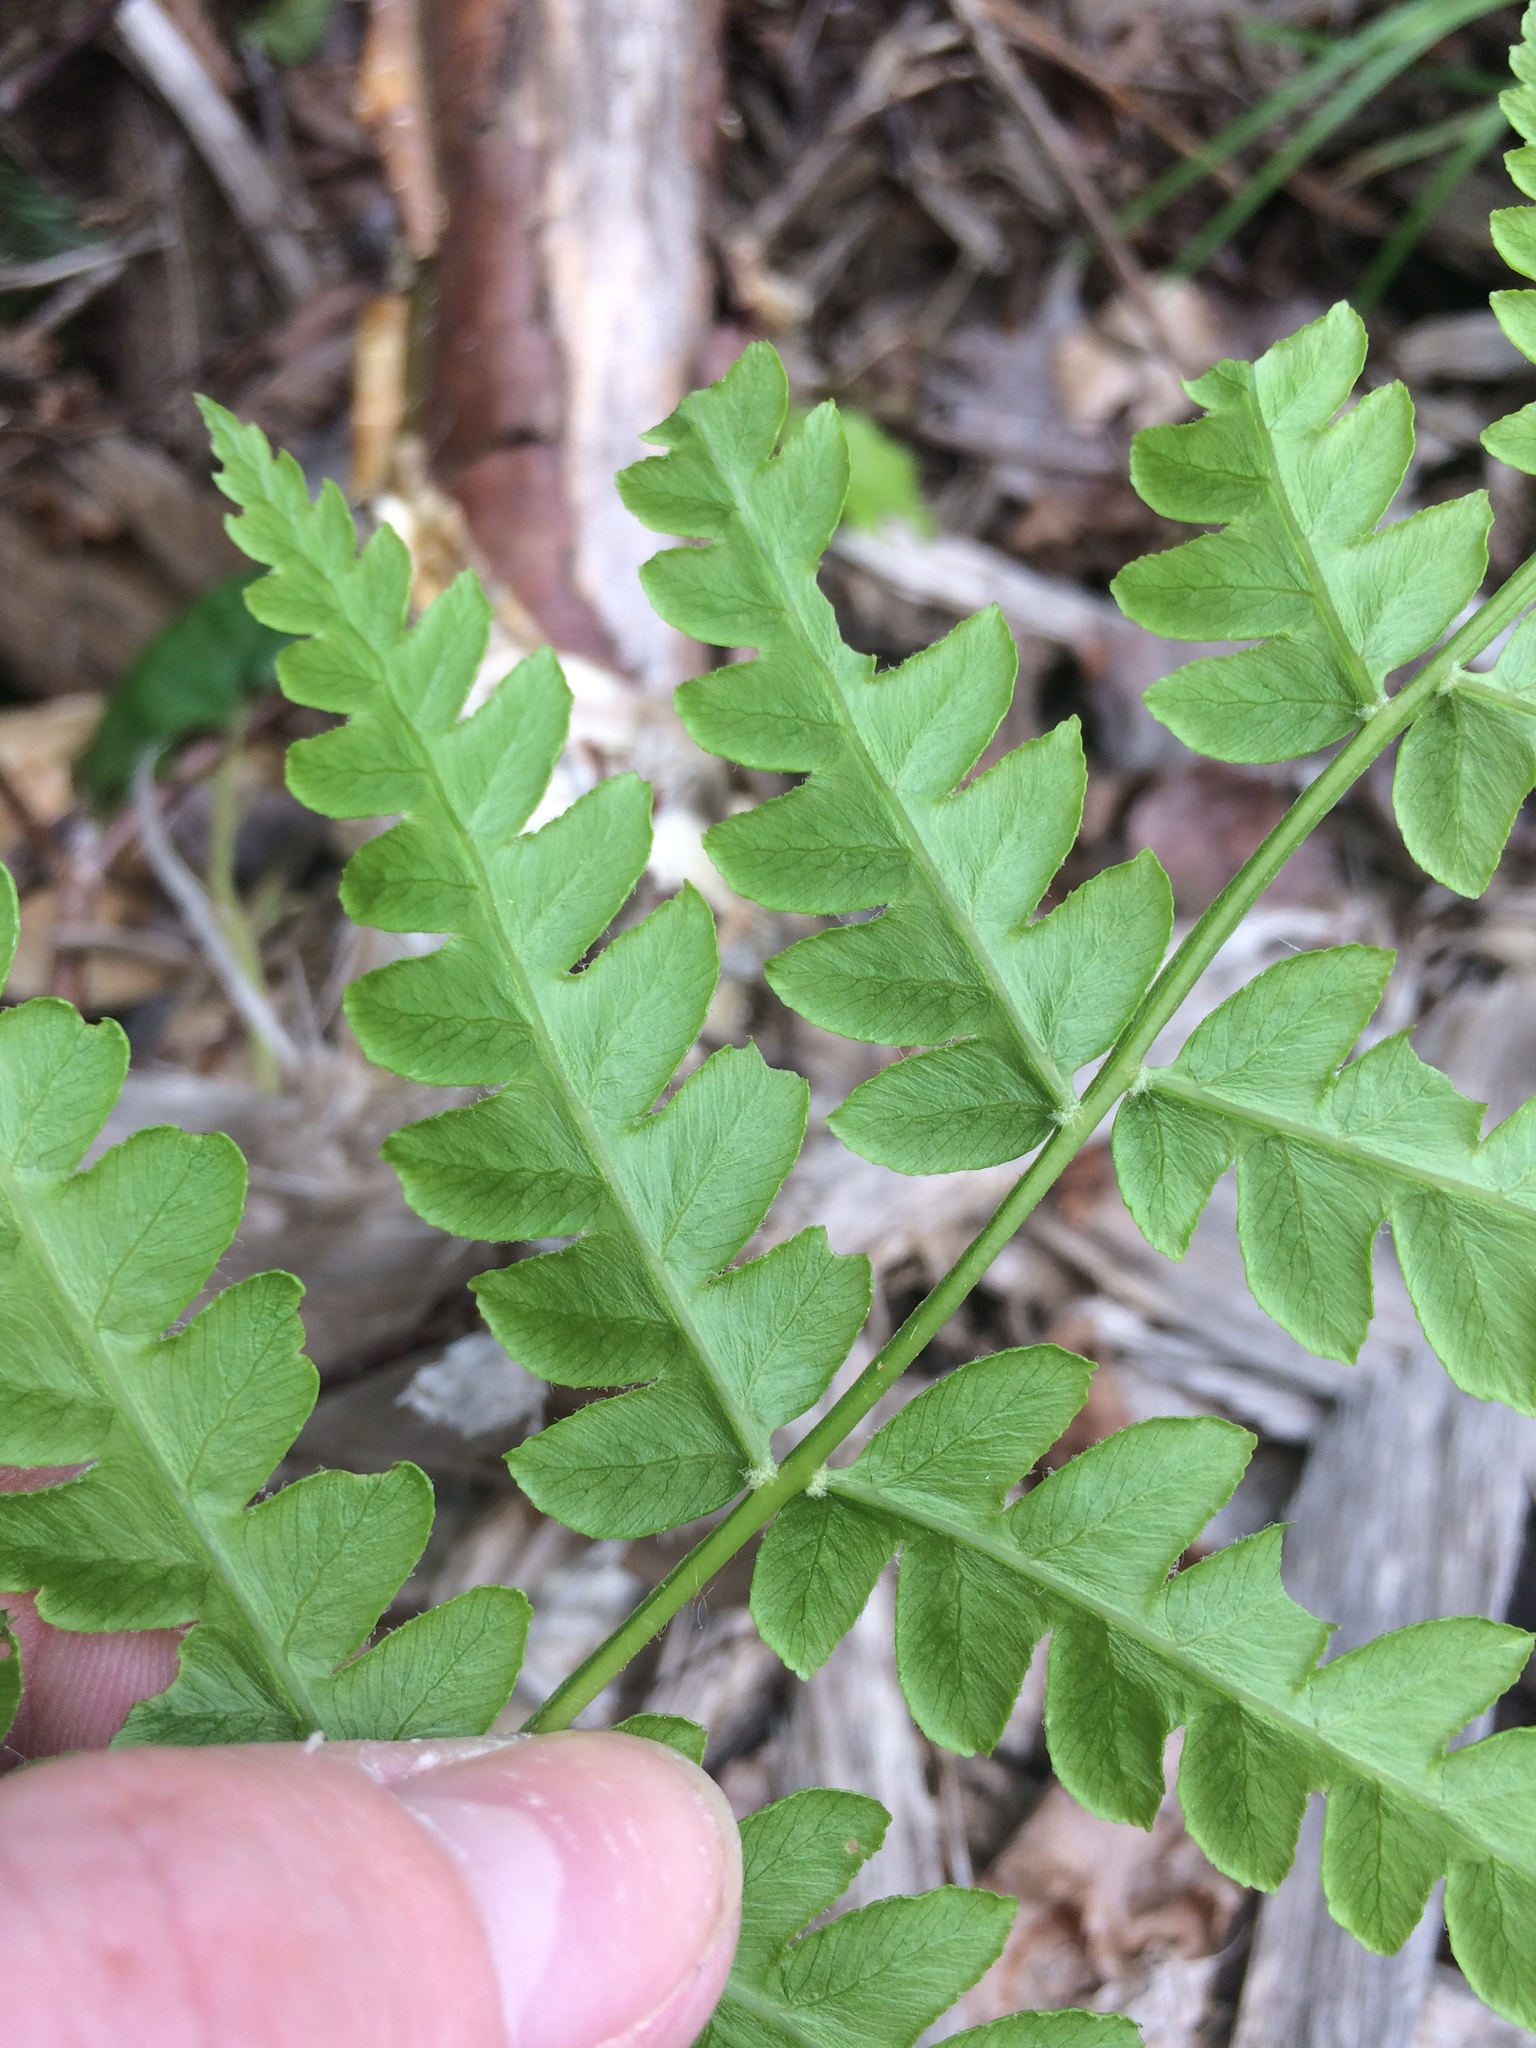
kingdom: Plantae
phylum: Tracheophyta
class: Polypodiopsida
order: Osmundales
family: Osmundaceae
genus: Osmundastrum
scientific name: Osmundastrum cinnamomeum
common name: Cinnamon fern
